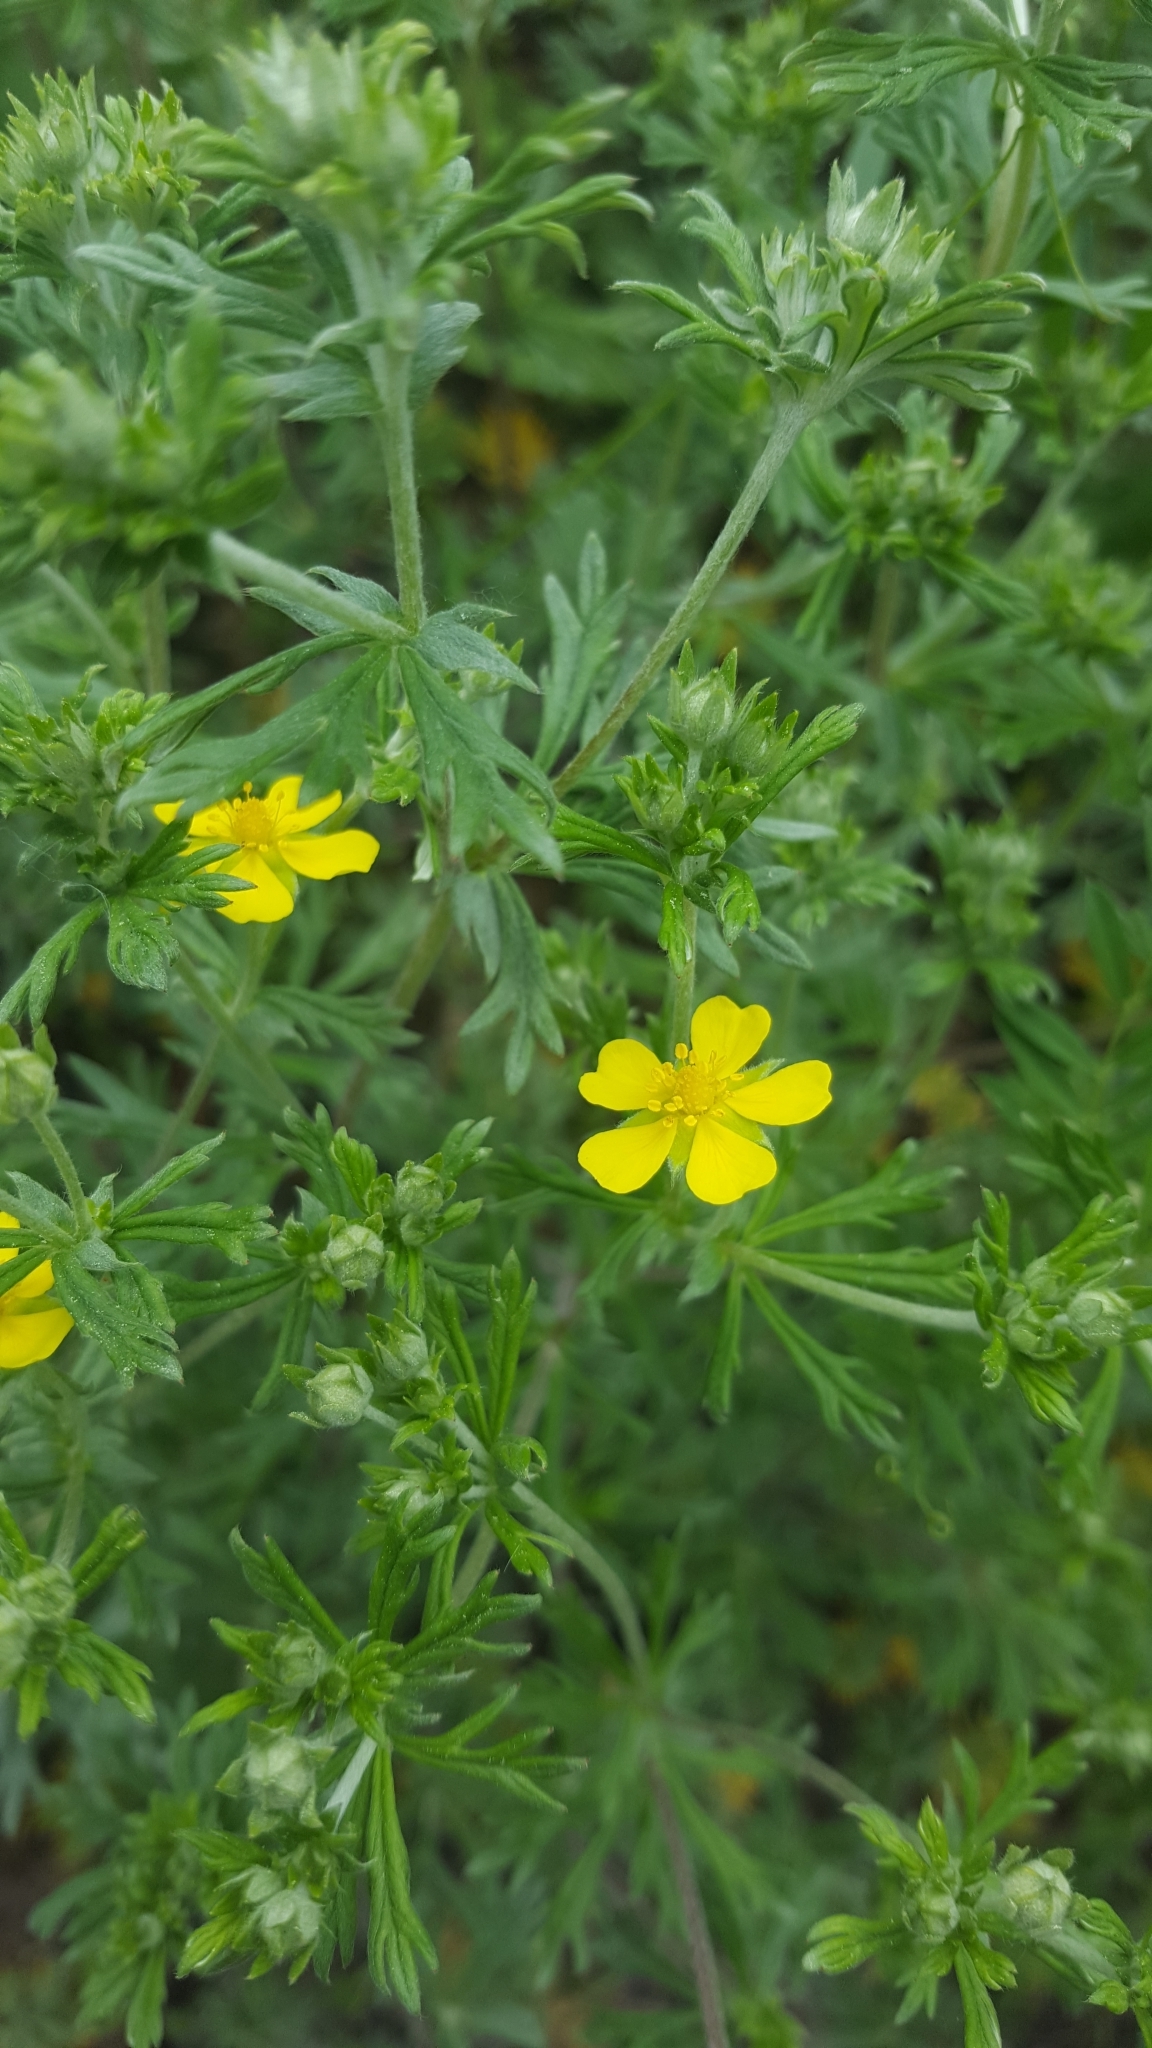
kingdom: Plantae
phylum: Tracheophyta
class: Magnoliopsida
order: Rosales
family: Rosaceae
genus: Potentilla
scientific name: Potentilla argentea
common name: Hoary cinquefoil
